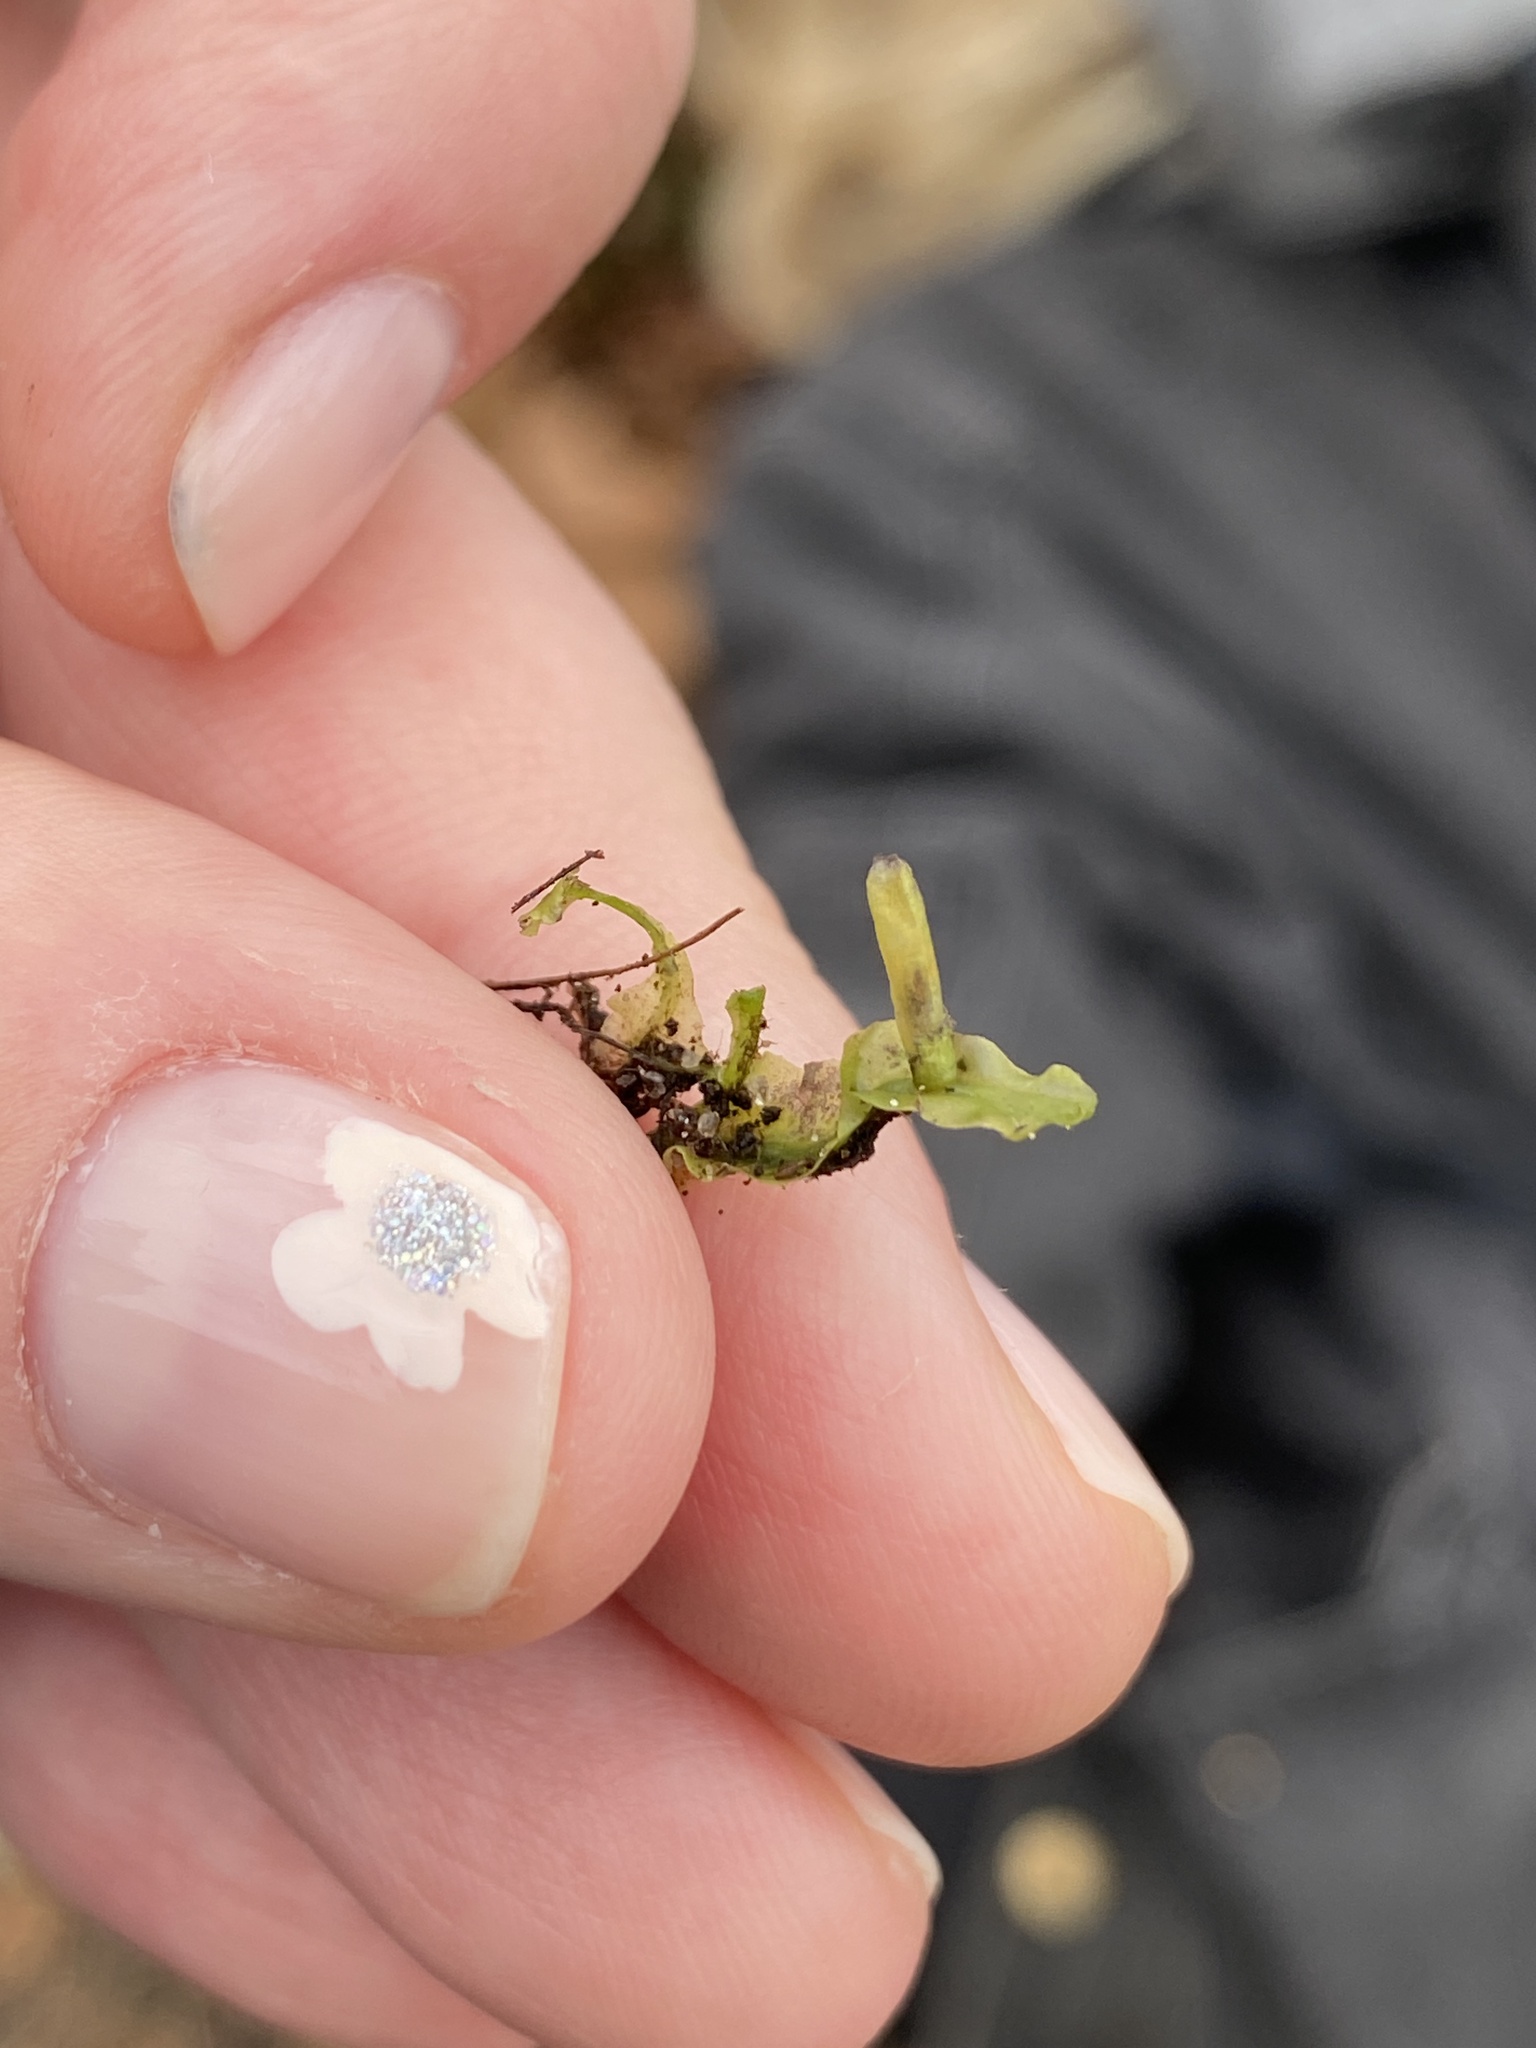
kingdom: Plantae
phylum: Marchantiophyta
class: Jungermanniopsida
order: Pallaviciniales
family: Pallaviciniaceae
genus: Pallavicinia
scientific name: Pallavicinia lyellii
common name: Veilwort
